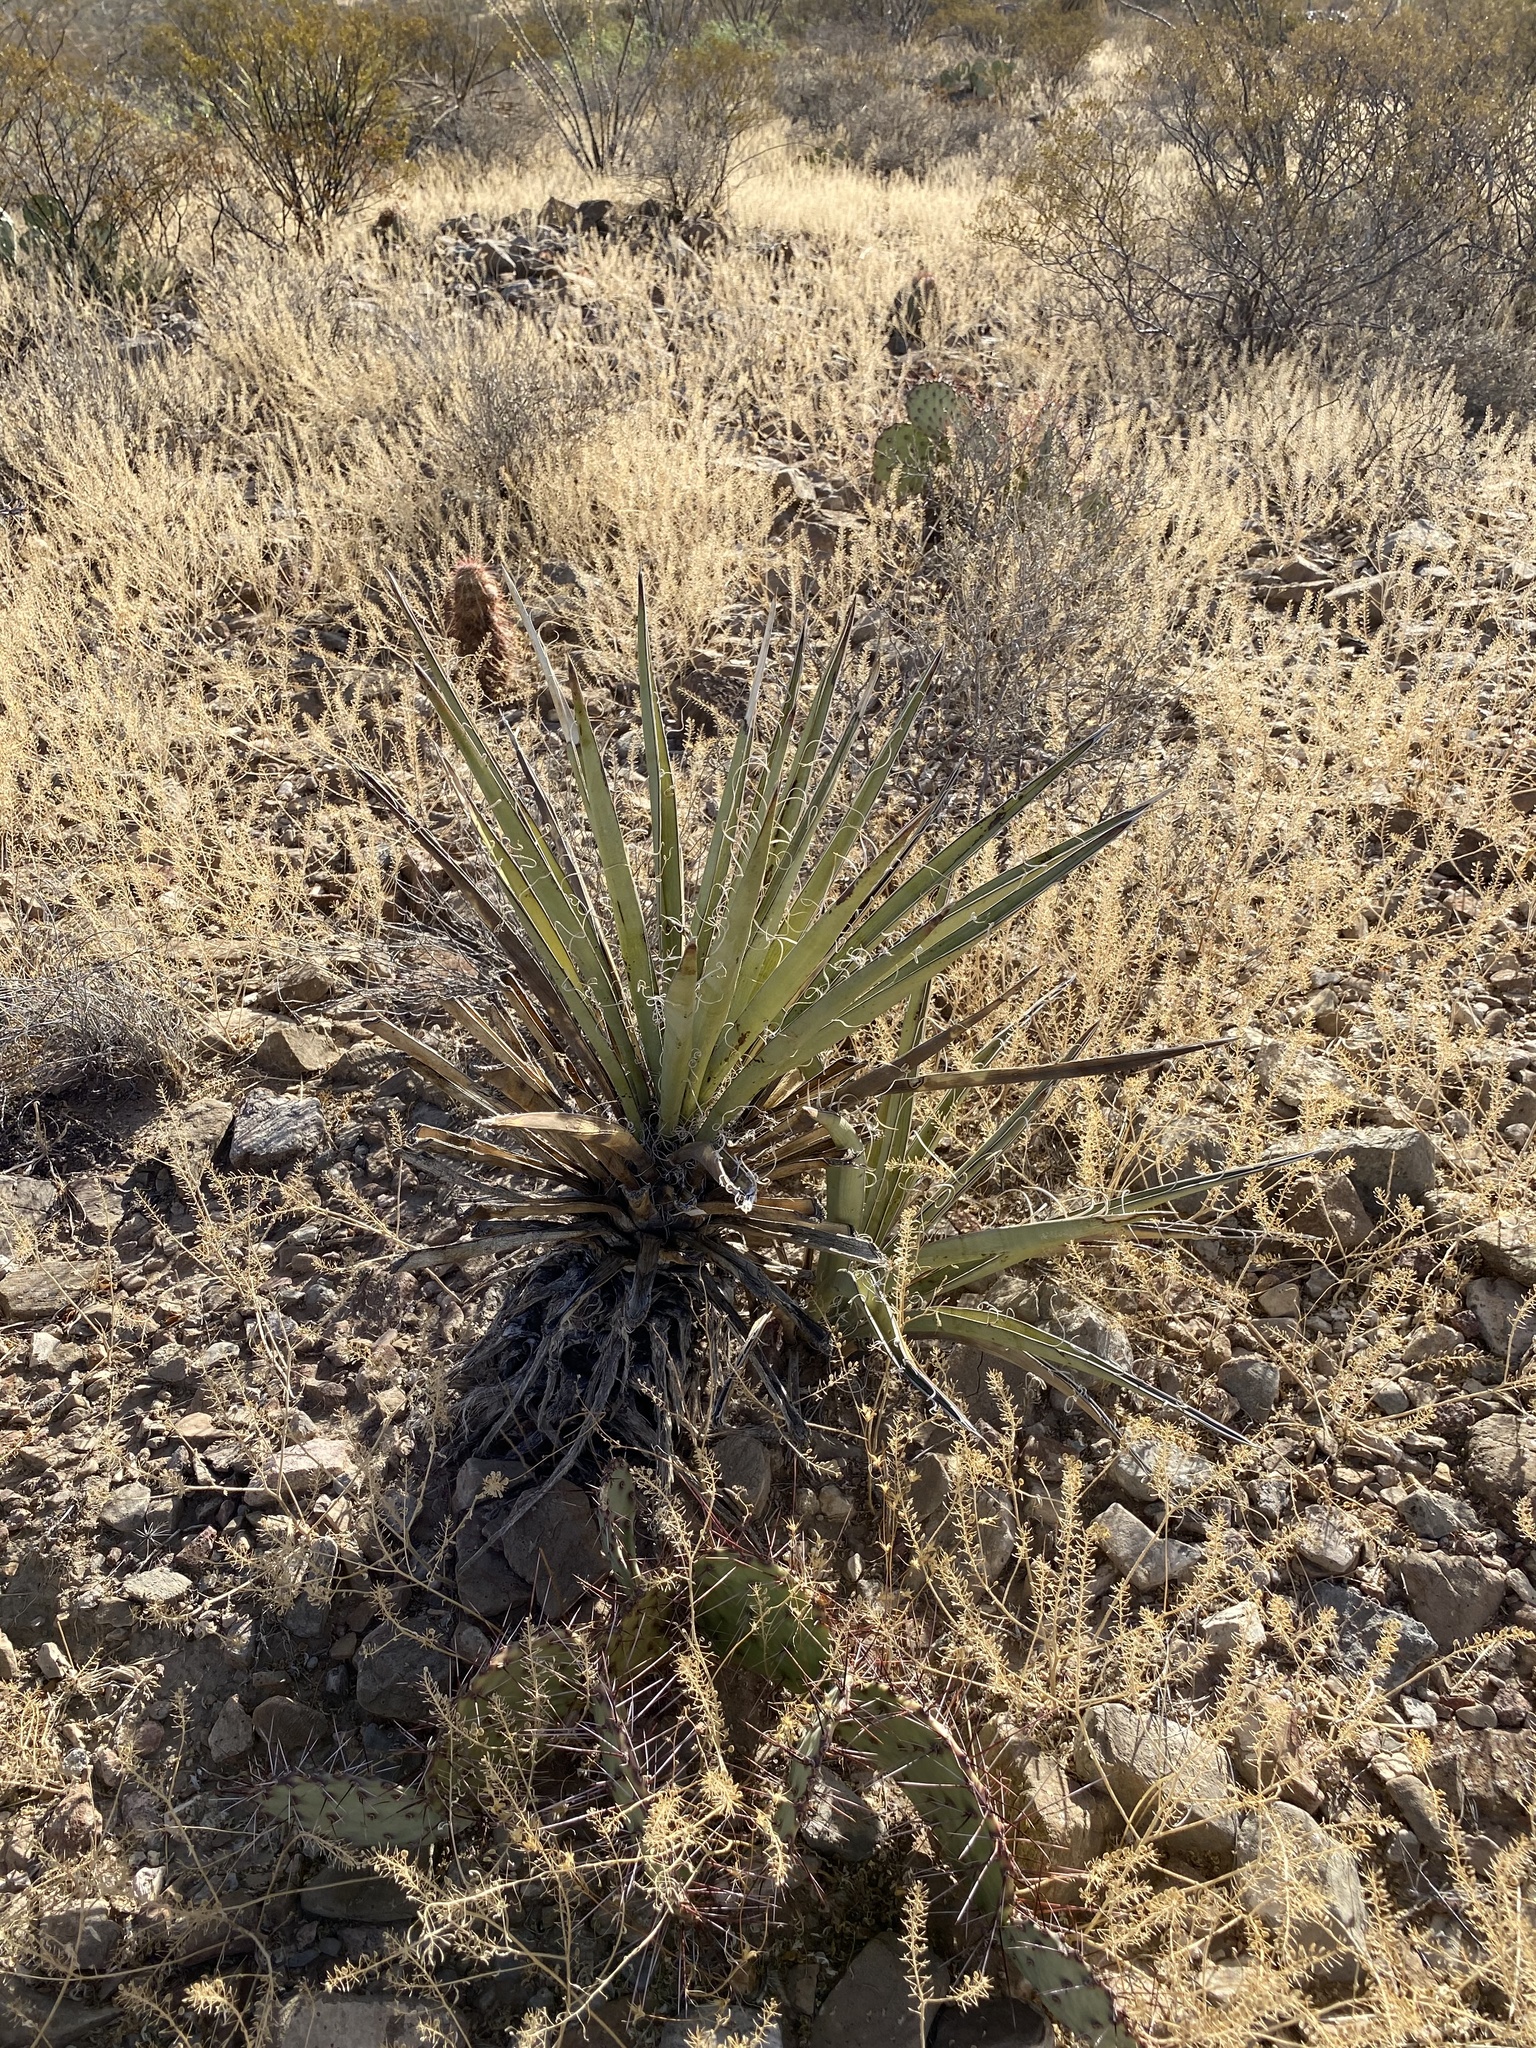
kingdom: Plantae
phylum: Tracheophyta
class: Liliopsida
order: Asparagales
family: Asparagaceae
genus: Yucca
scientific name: Yucca baccata
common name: Banana yucca
